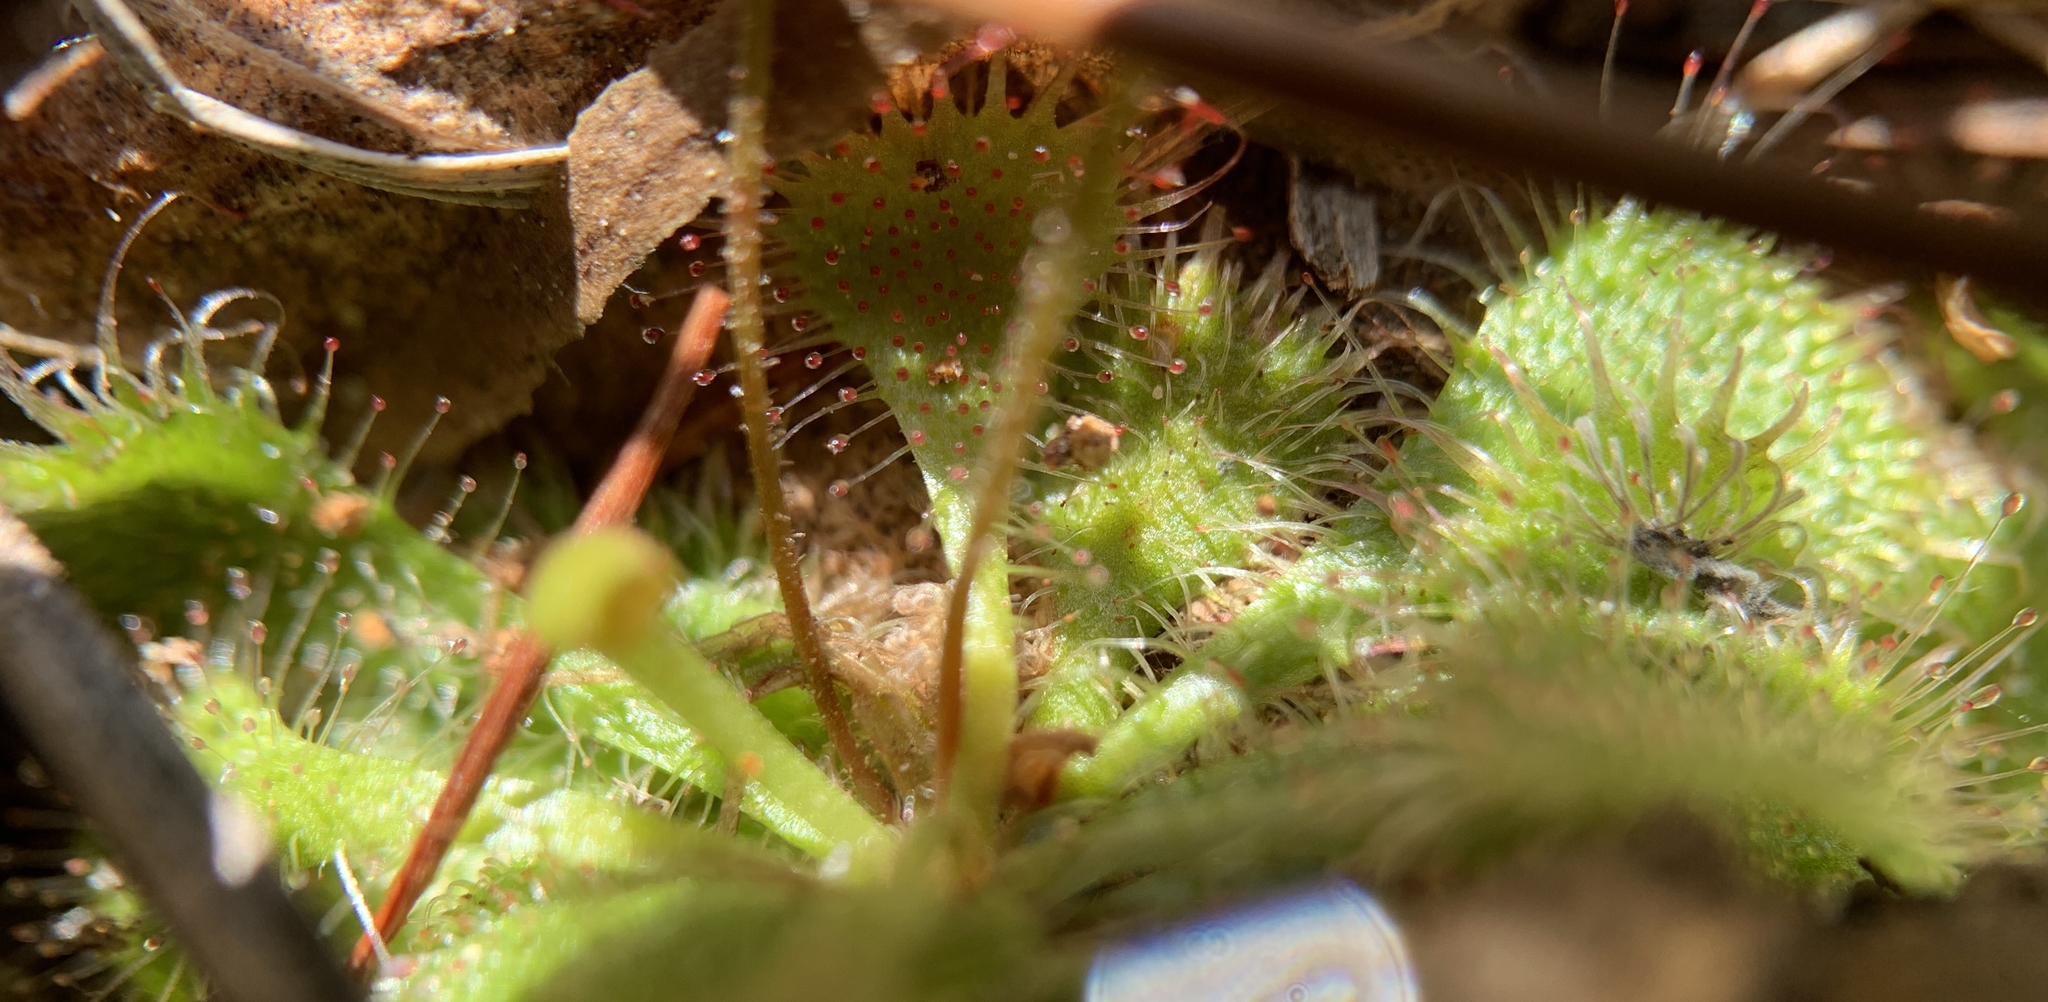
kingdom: Plantae
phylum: Tracheophyta
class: Magnoliopsida
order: Caryophyllales
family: Droseraceae
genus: Drosera
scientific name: Drosera brevifolia
